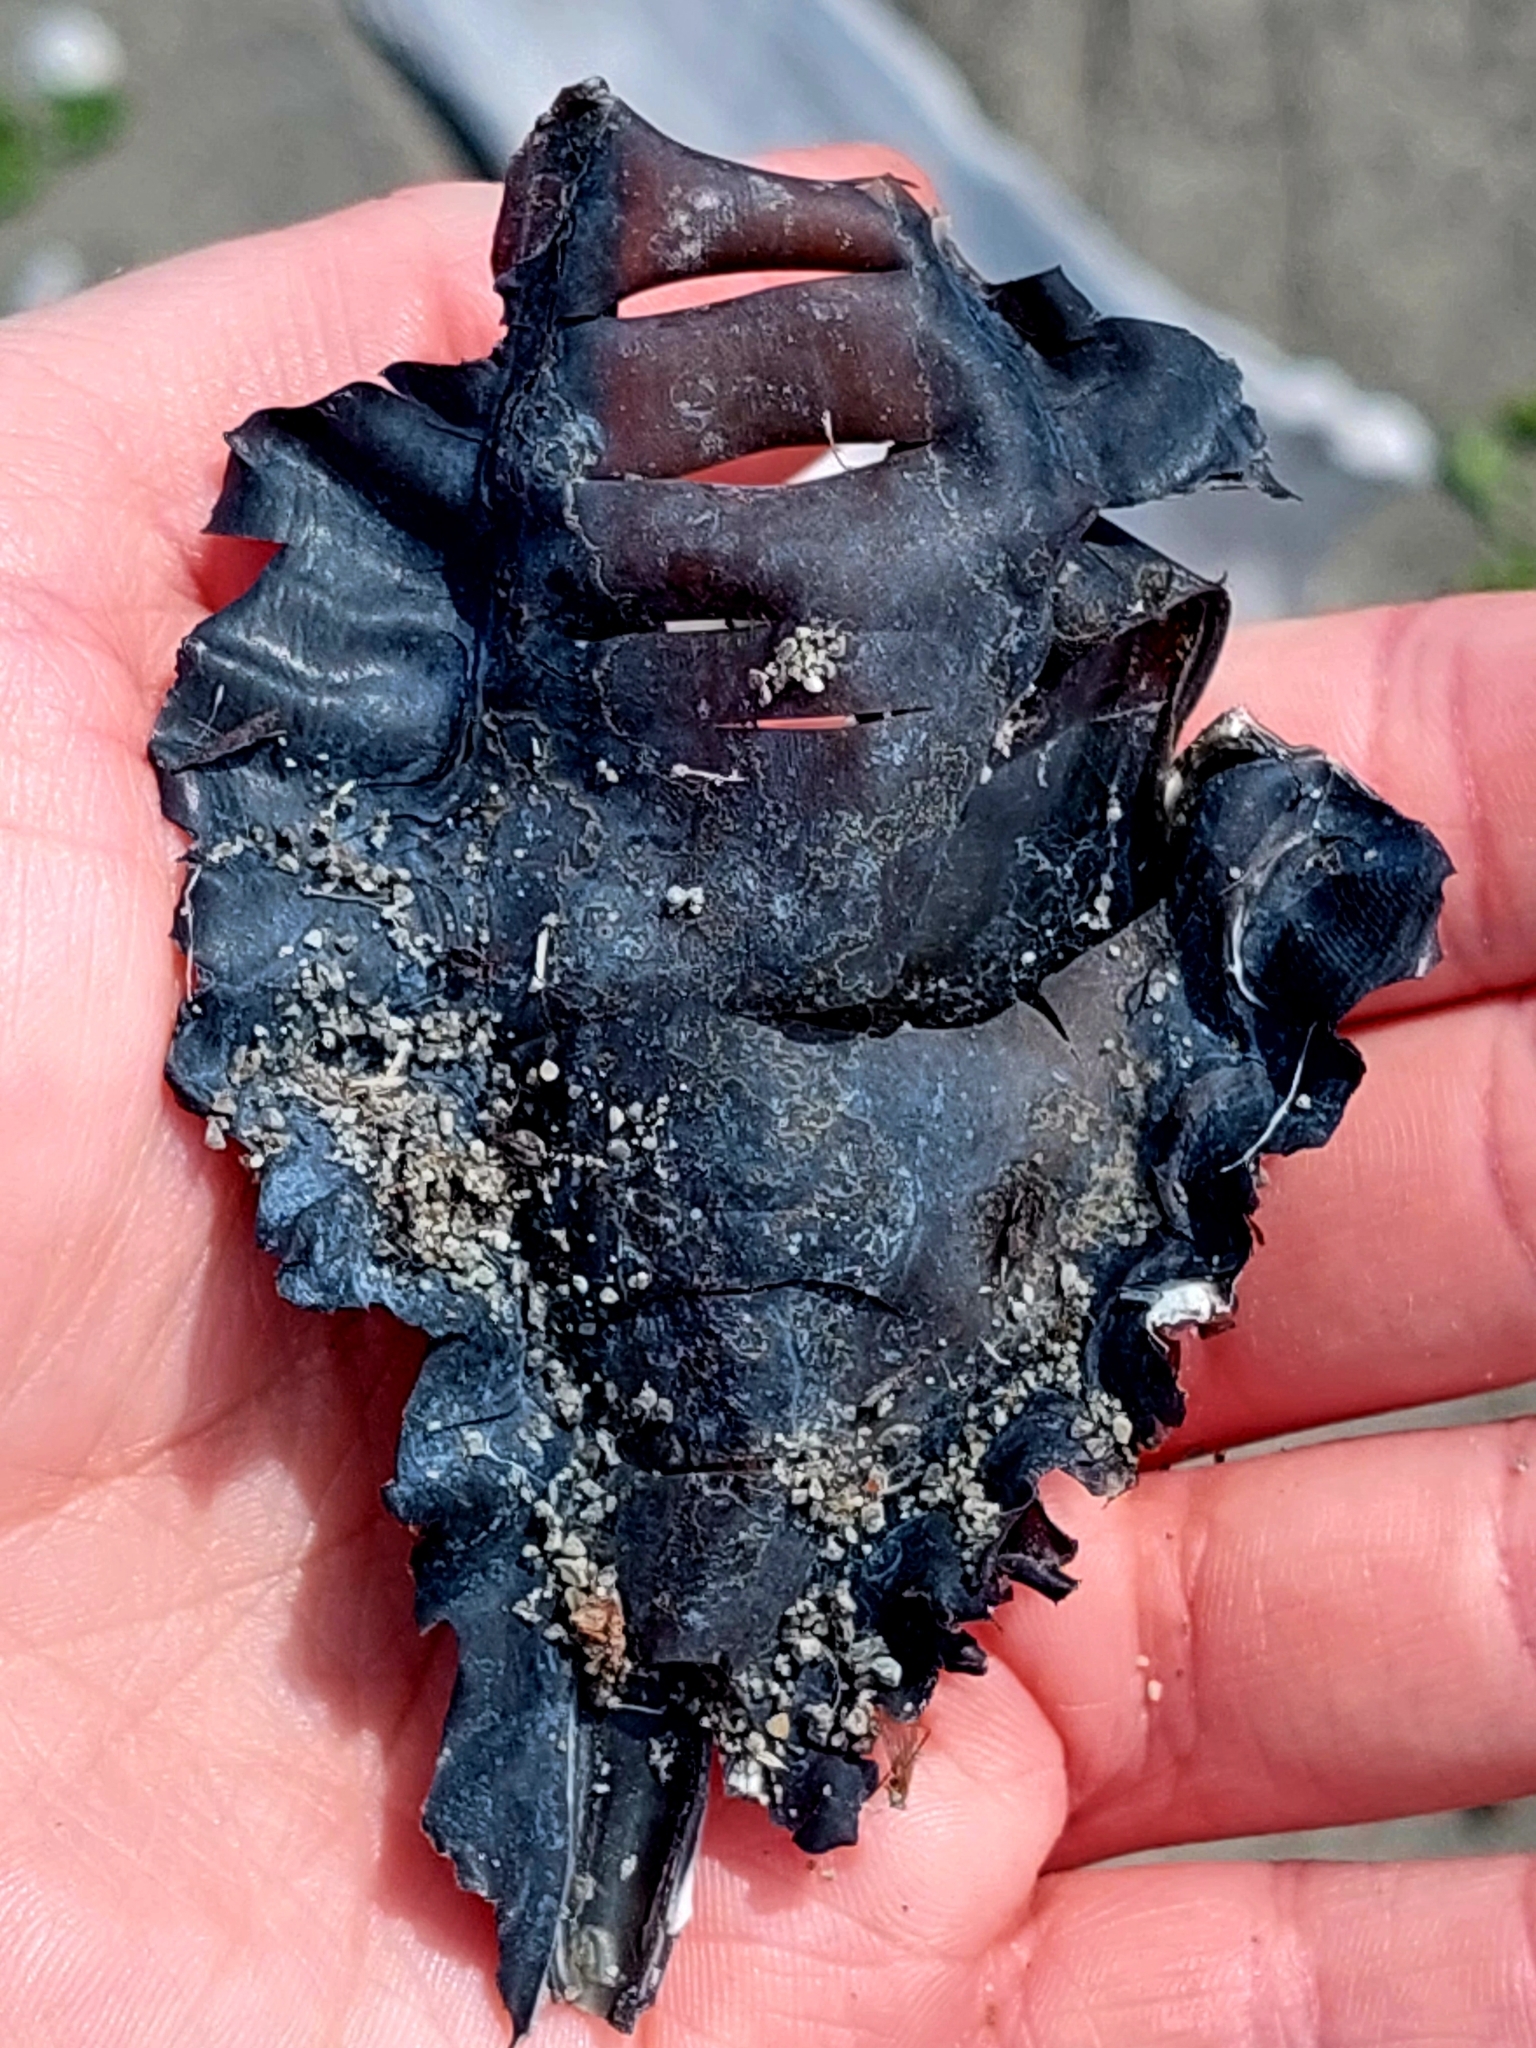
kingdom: Animalia
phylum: Chordata
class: Holocephali
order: Chimaeriformes
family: Callorhinchidae
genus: Callorhinchus
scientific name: Callorhinchus milii
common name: Elephant fish
